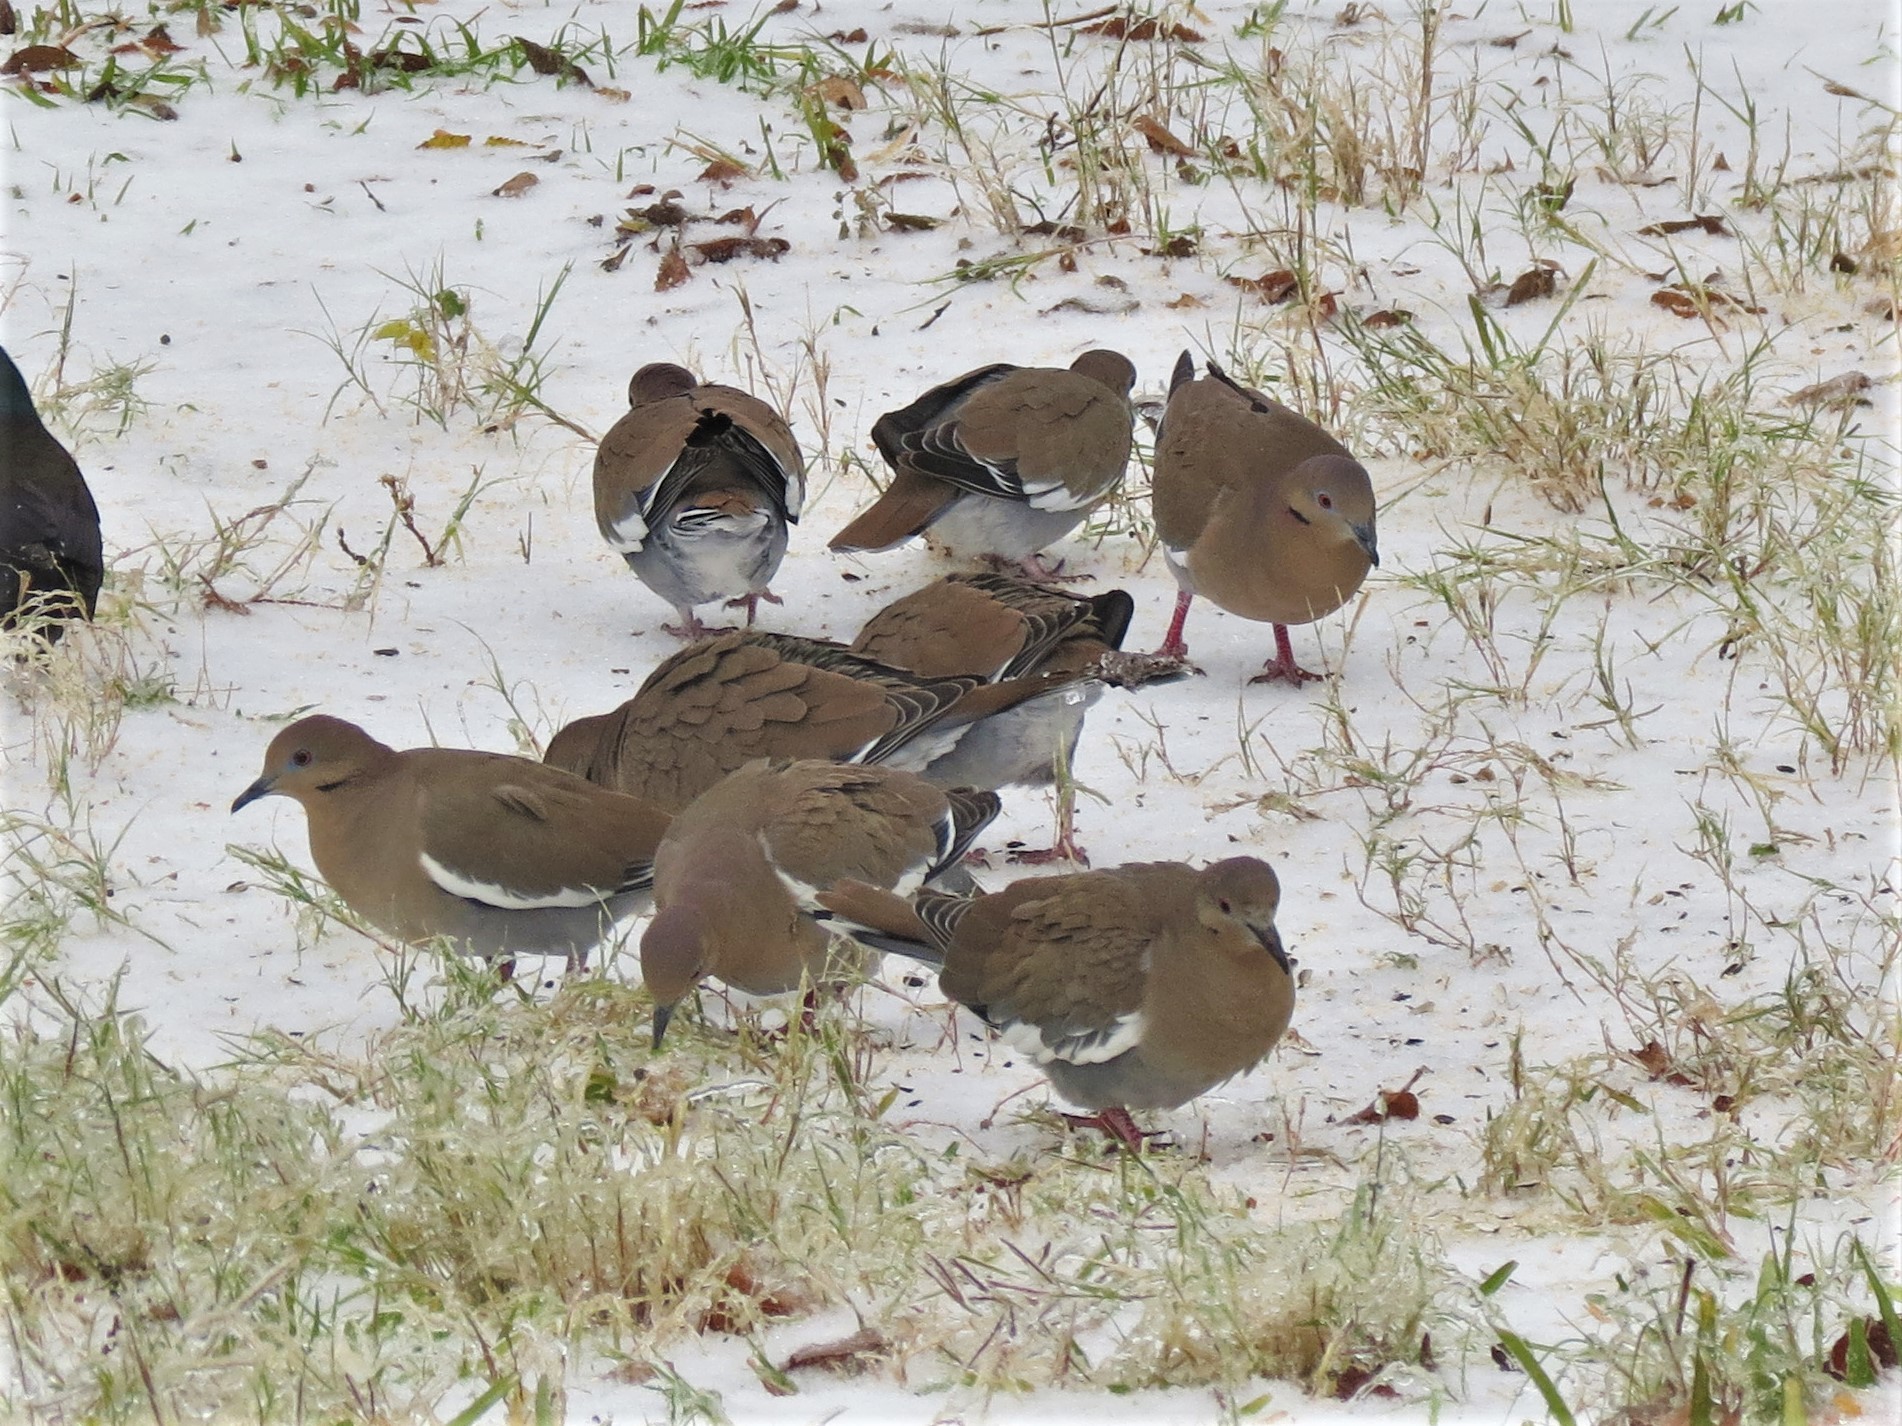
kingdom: Animalia
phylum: Chordata
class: Aves
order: Columbiformes
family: Columbidae
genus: Zenaida
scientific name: Zenaida asiatica
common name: White-winged dove
